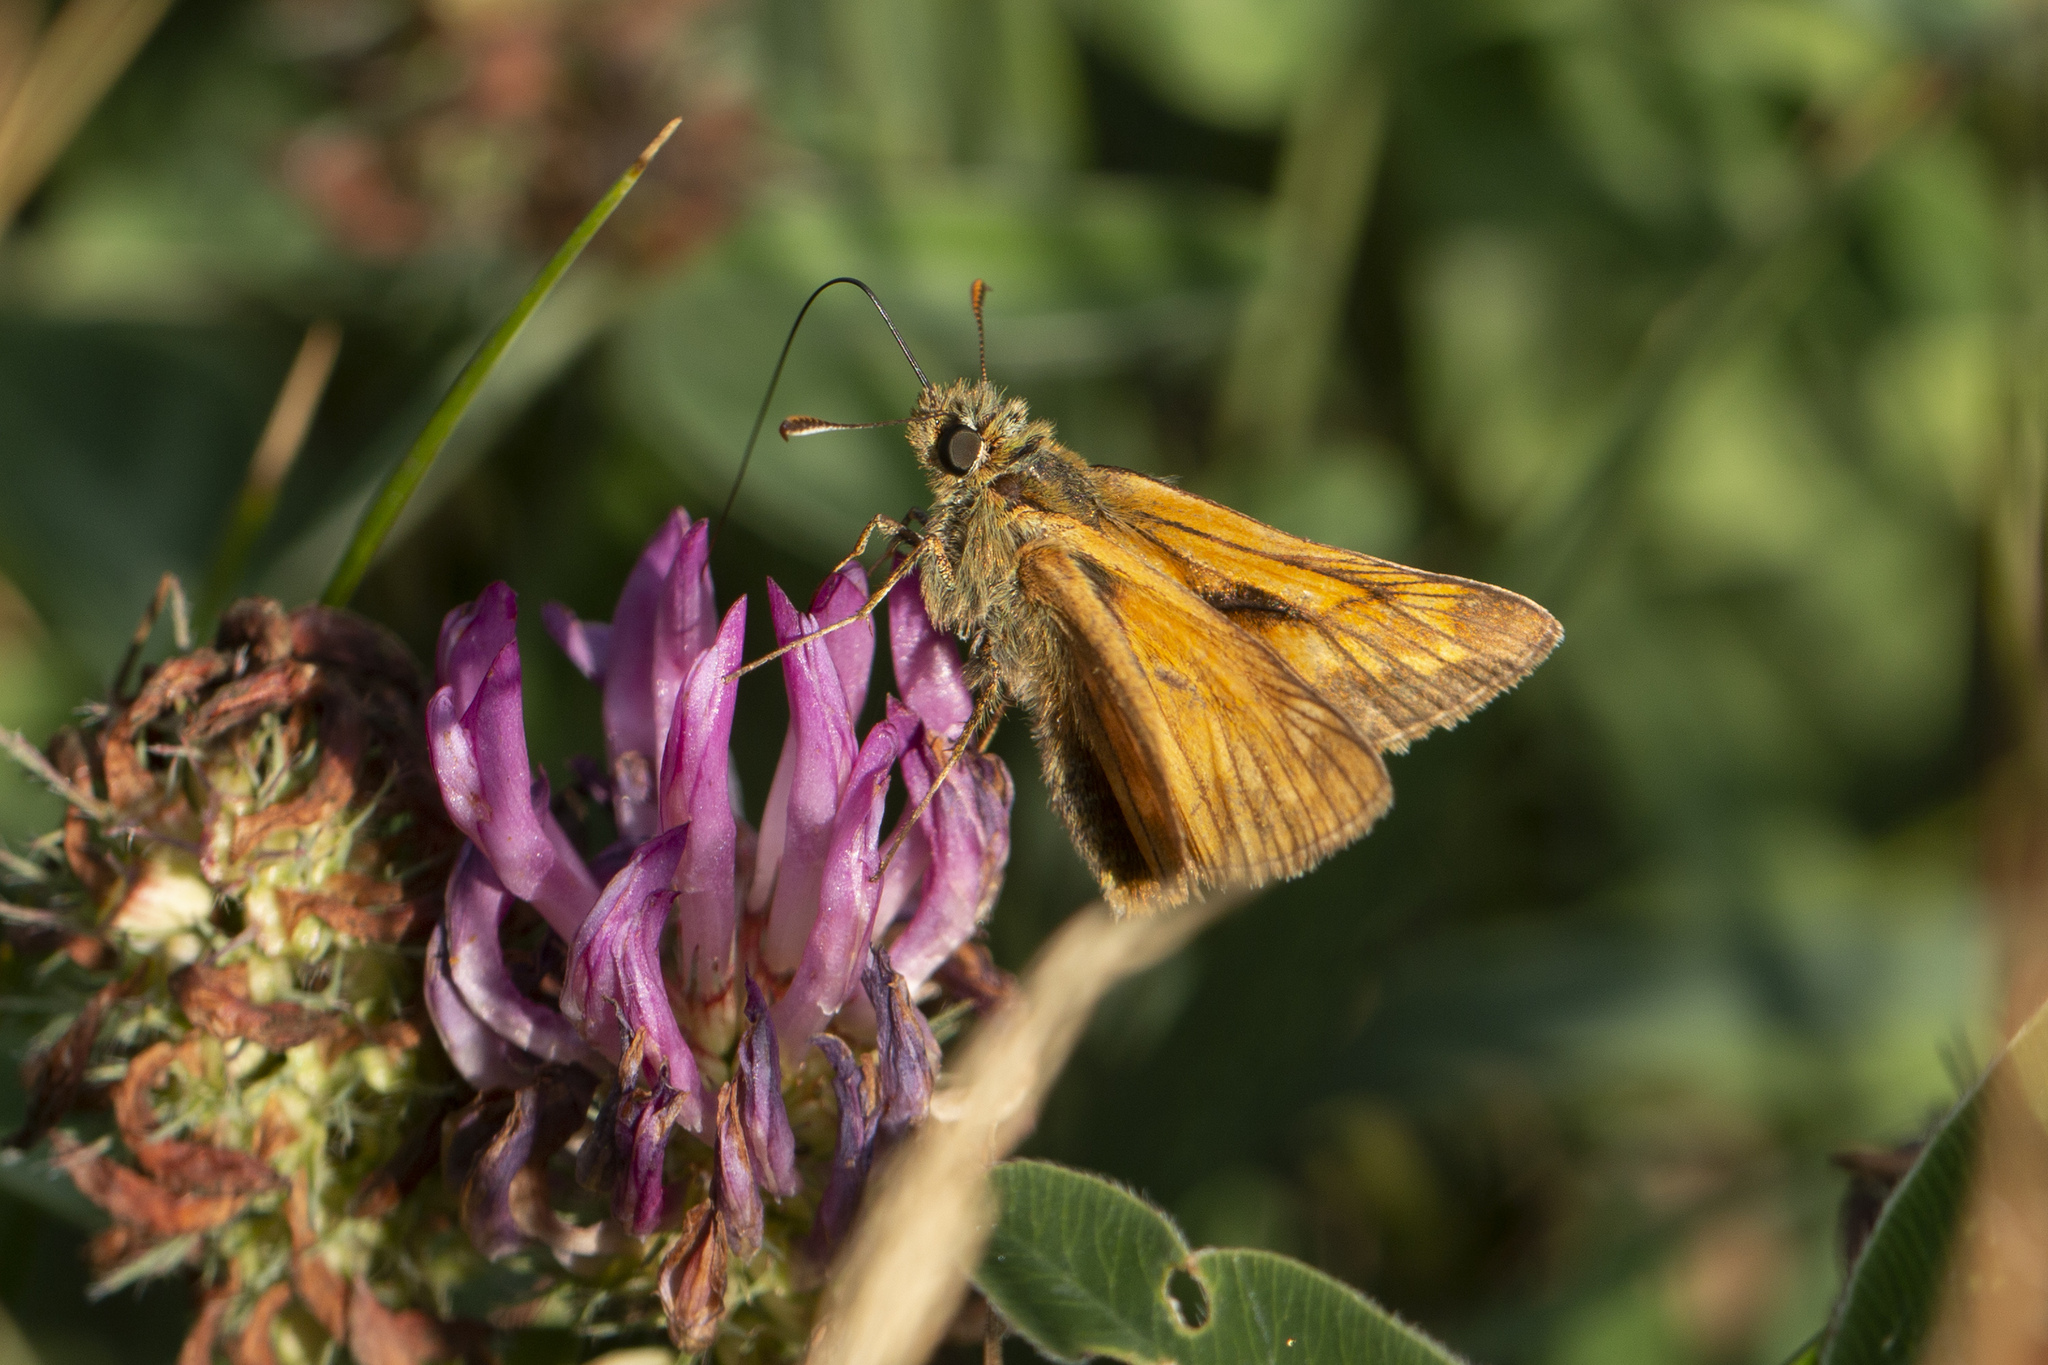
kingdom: Animalia
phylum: Arthropoda
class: Insecta
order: Lepidoptera
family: Hesperiidae
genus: Ochlodes
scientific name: Ochlodes venata
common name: Large skipper
